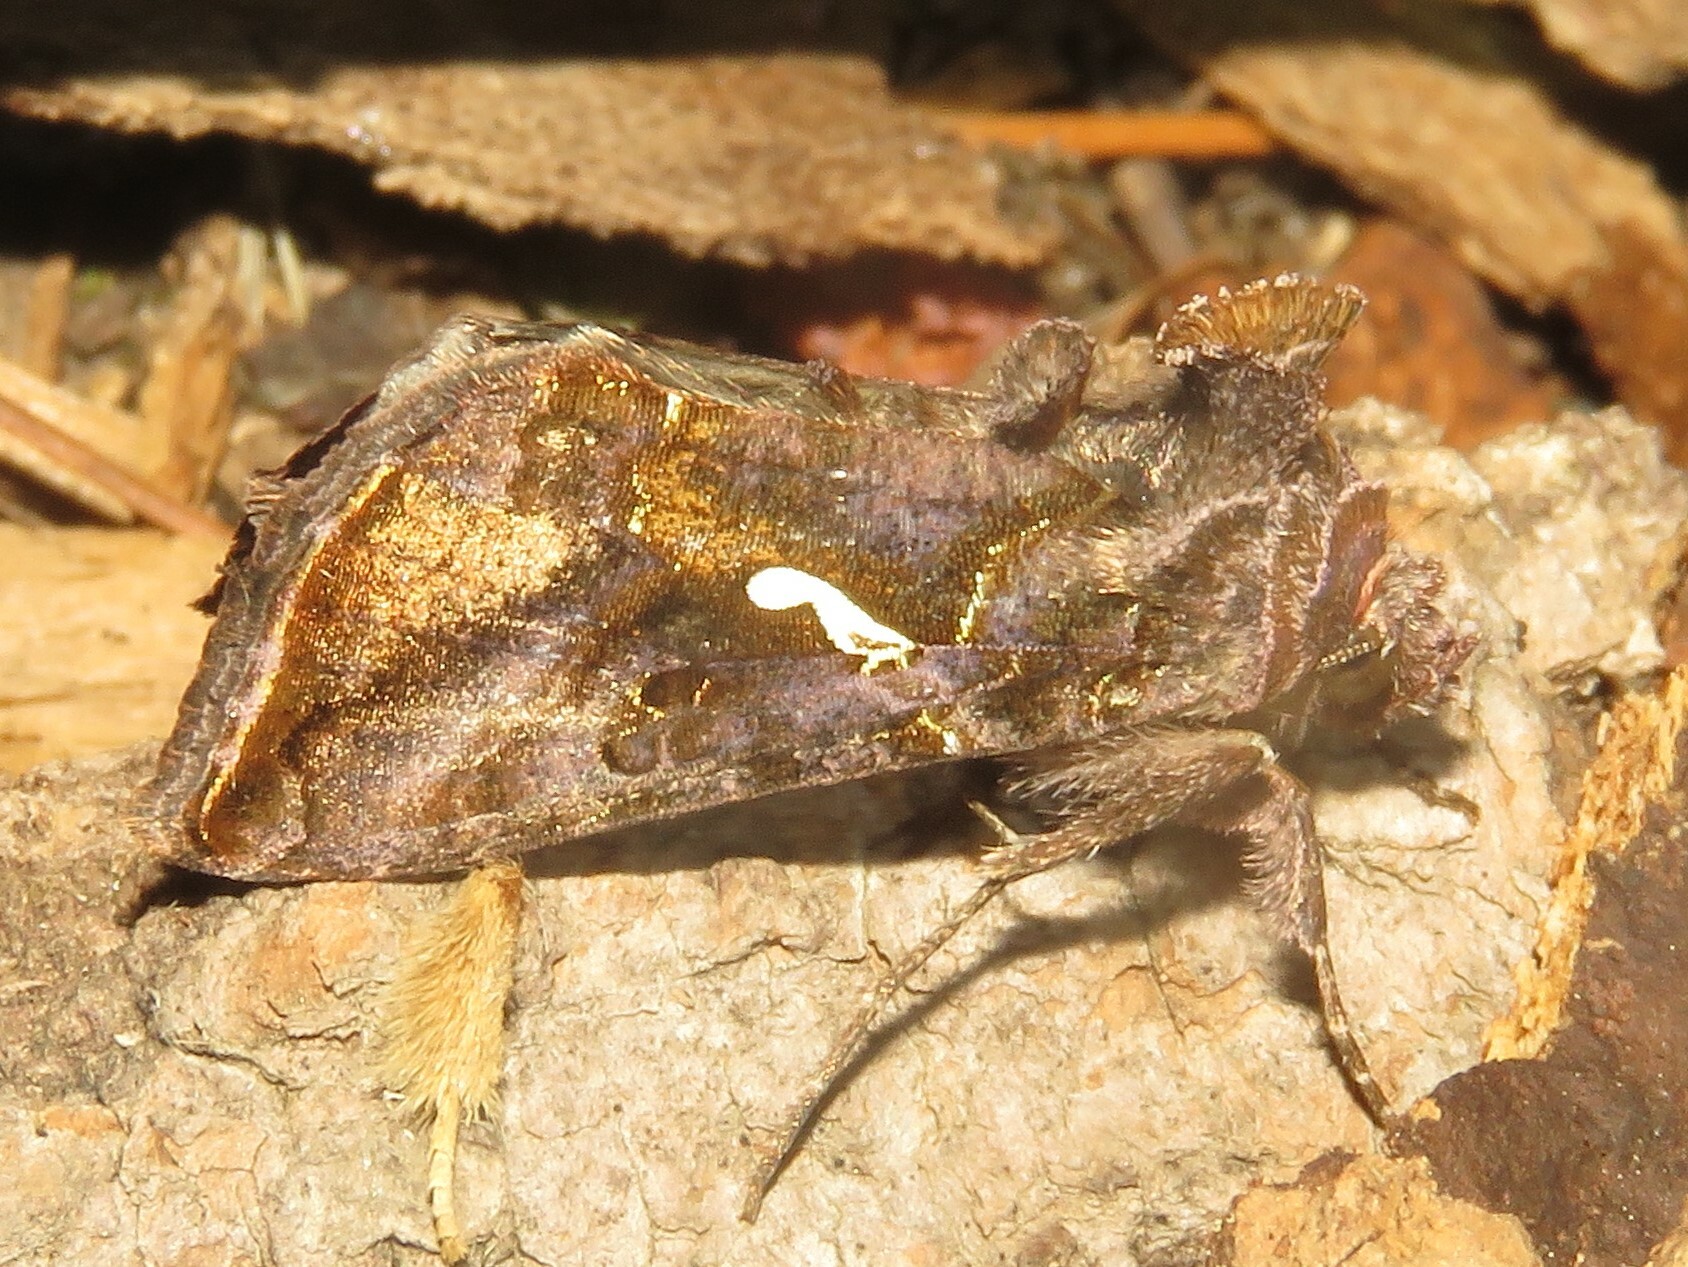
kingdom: Animalia
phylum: Arthropoda
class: Insecta
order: Lepidoptera
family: Noctuidae
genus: Autographa
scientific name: Autographa precationis
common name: Common looper moth
